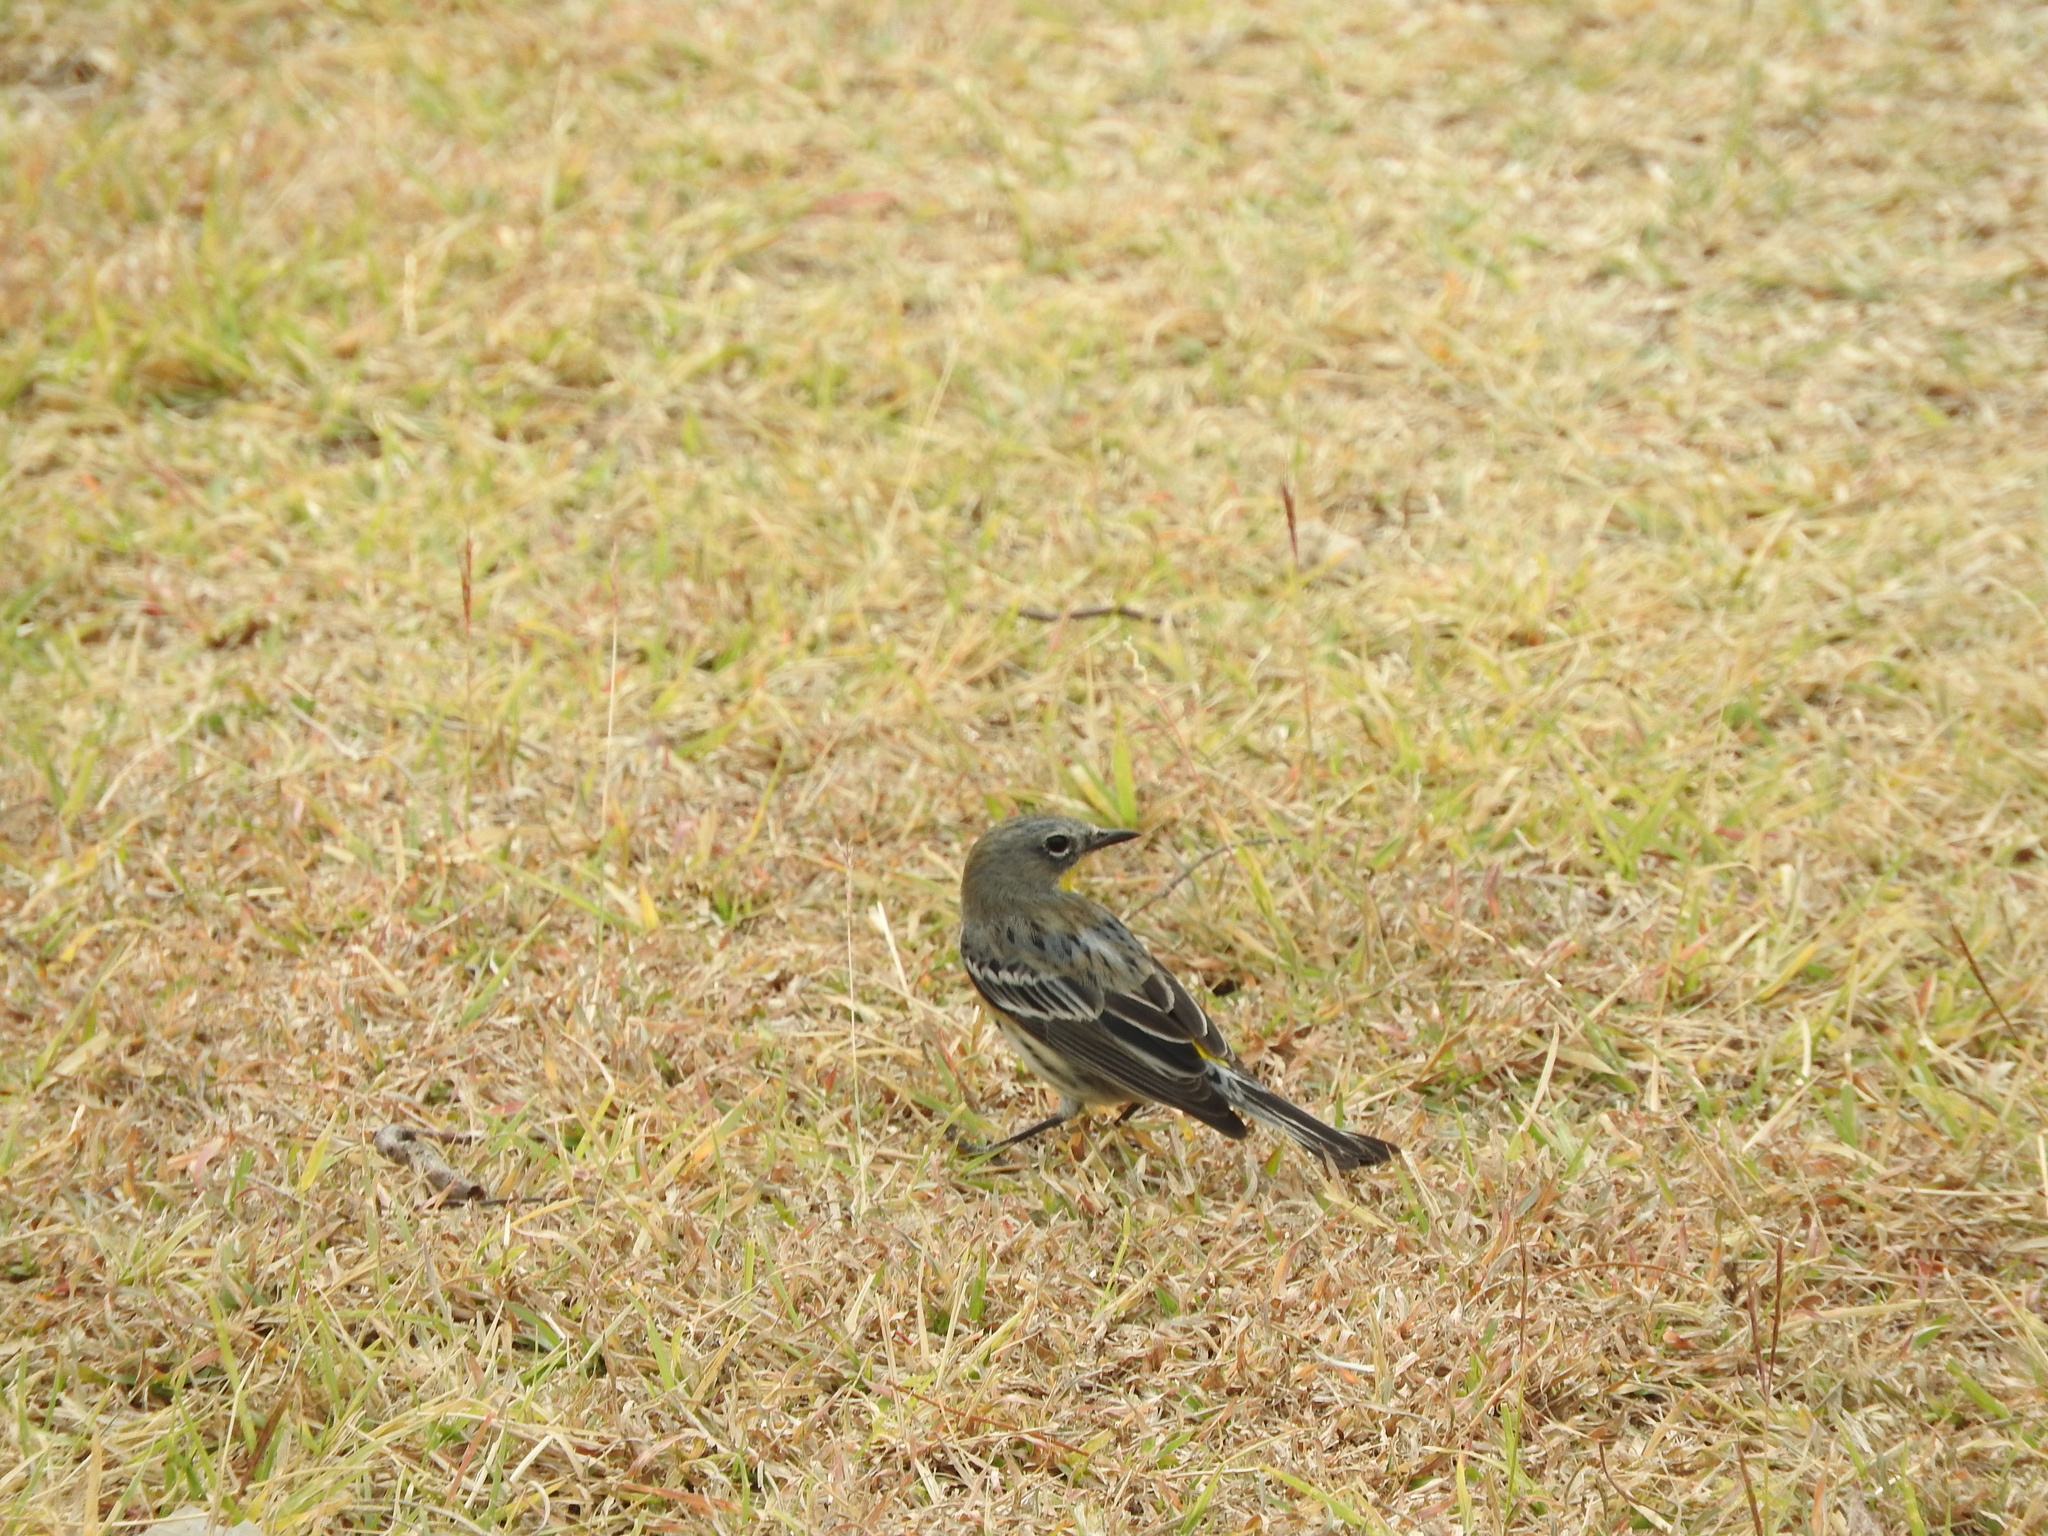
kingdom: Animalia
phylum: Chordata
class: Aves
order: Passeriformes
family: Parulidae
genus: Setophaga
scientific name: Setophaga auduboni
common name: Audubon's warbler
